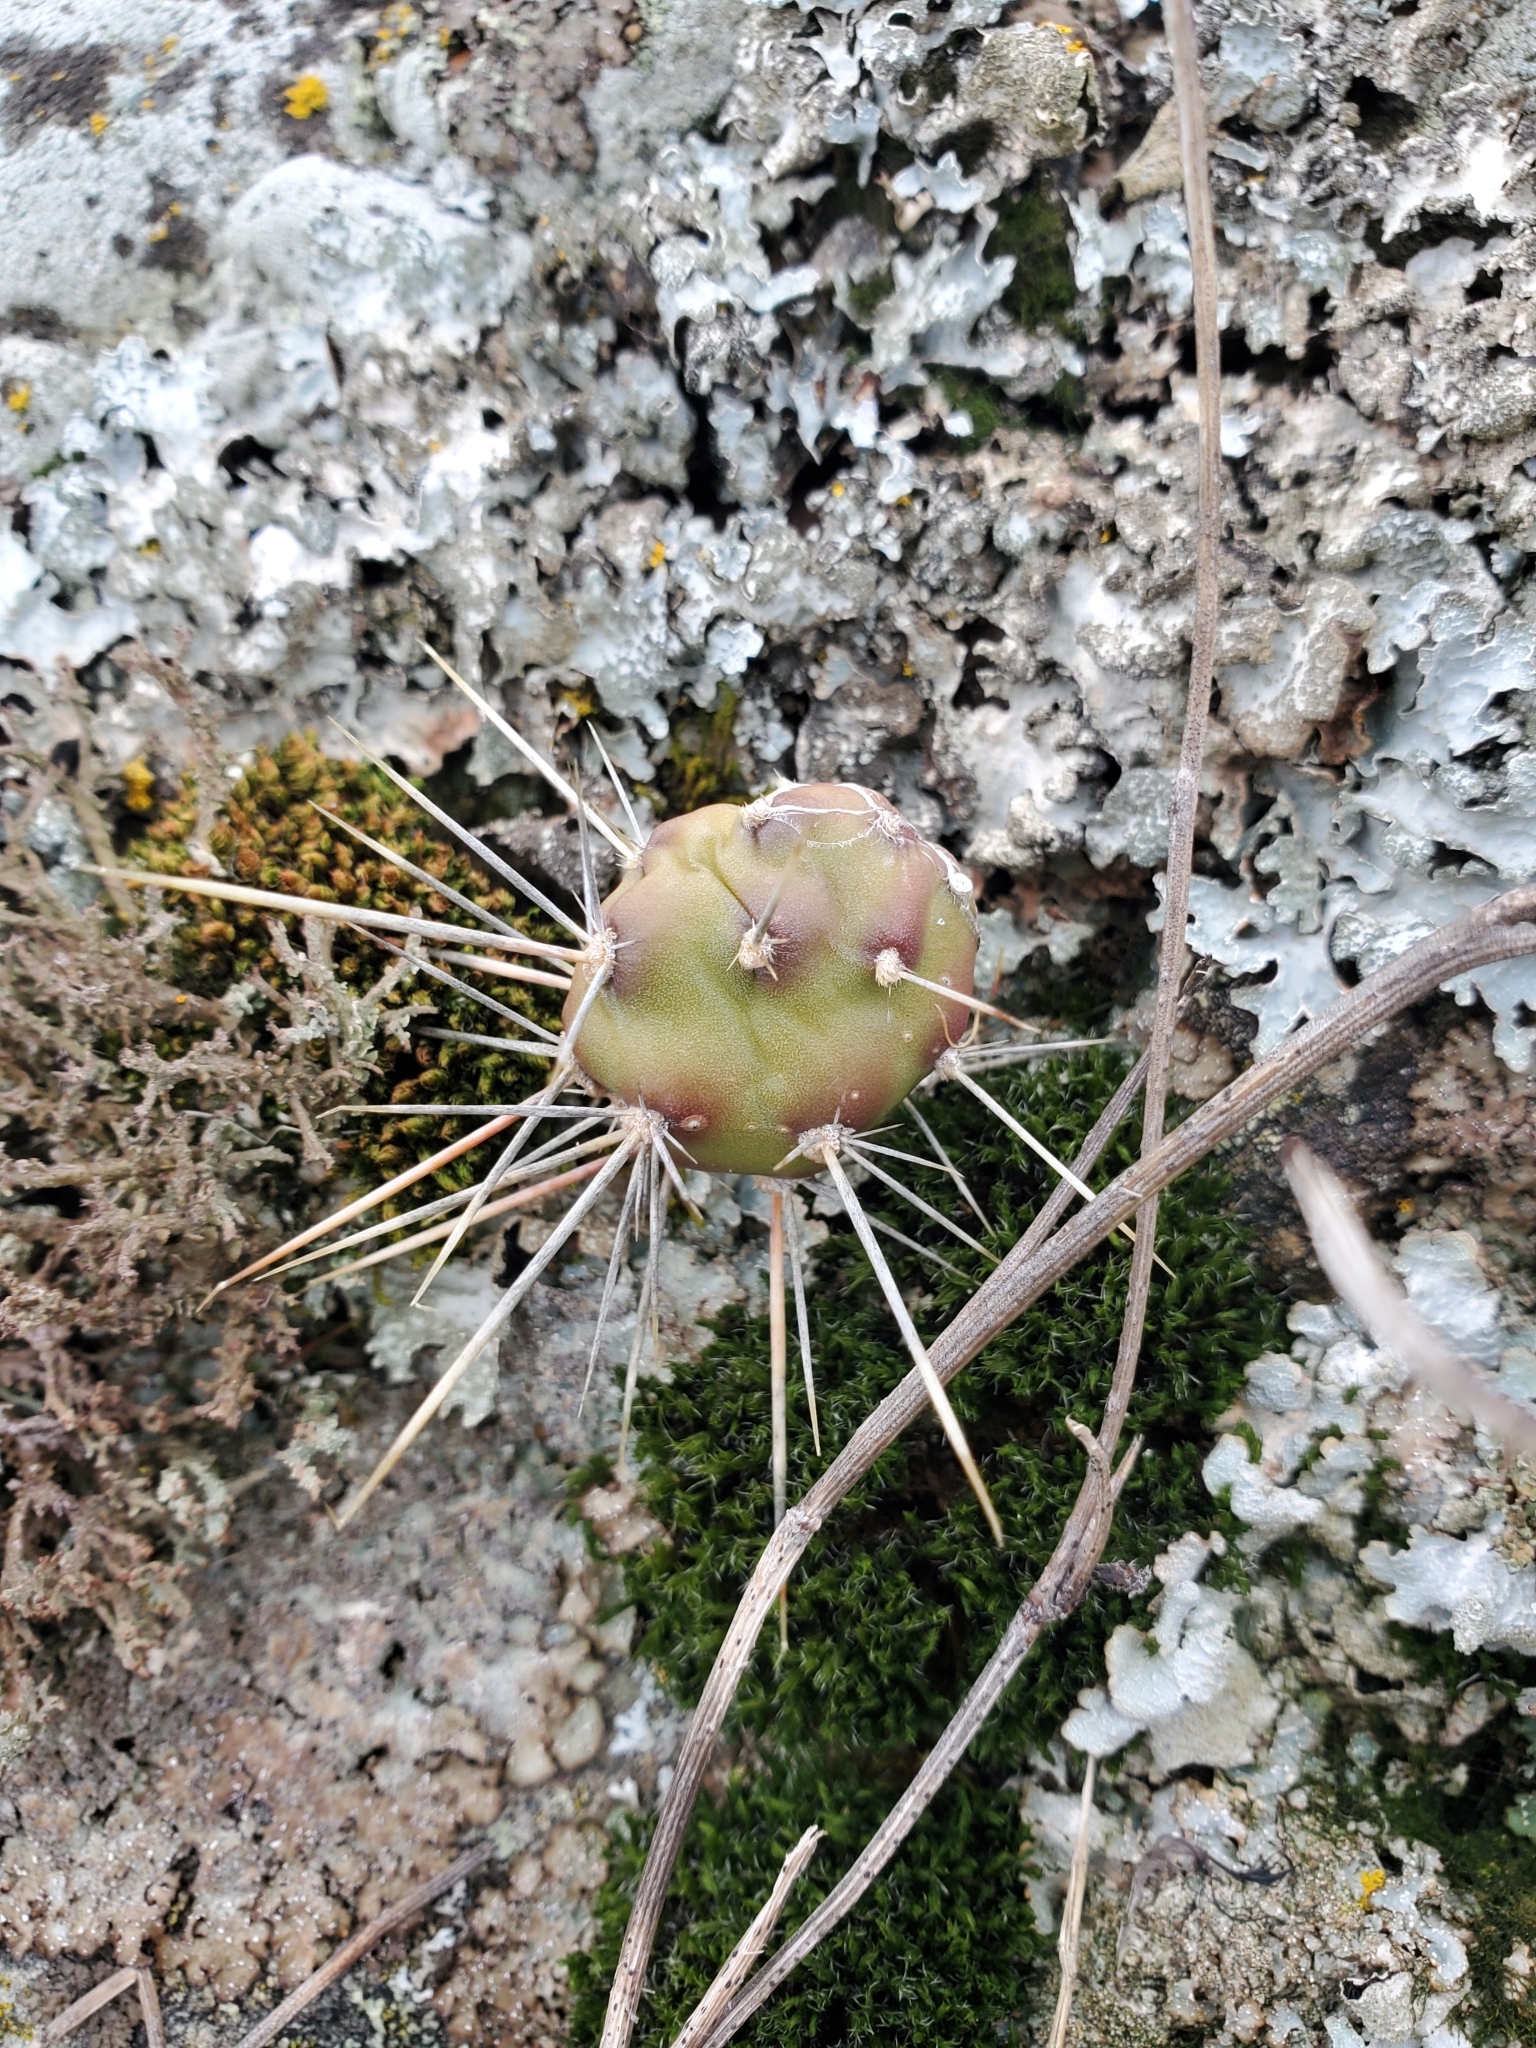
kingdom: Plantae
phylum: Tracheophyta
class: Magnoliopsida
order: Caryophyllales
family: Cactaceae
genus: Opuntia
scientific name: Opuntia fragilis
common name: Brittle cactus
